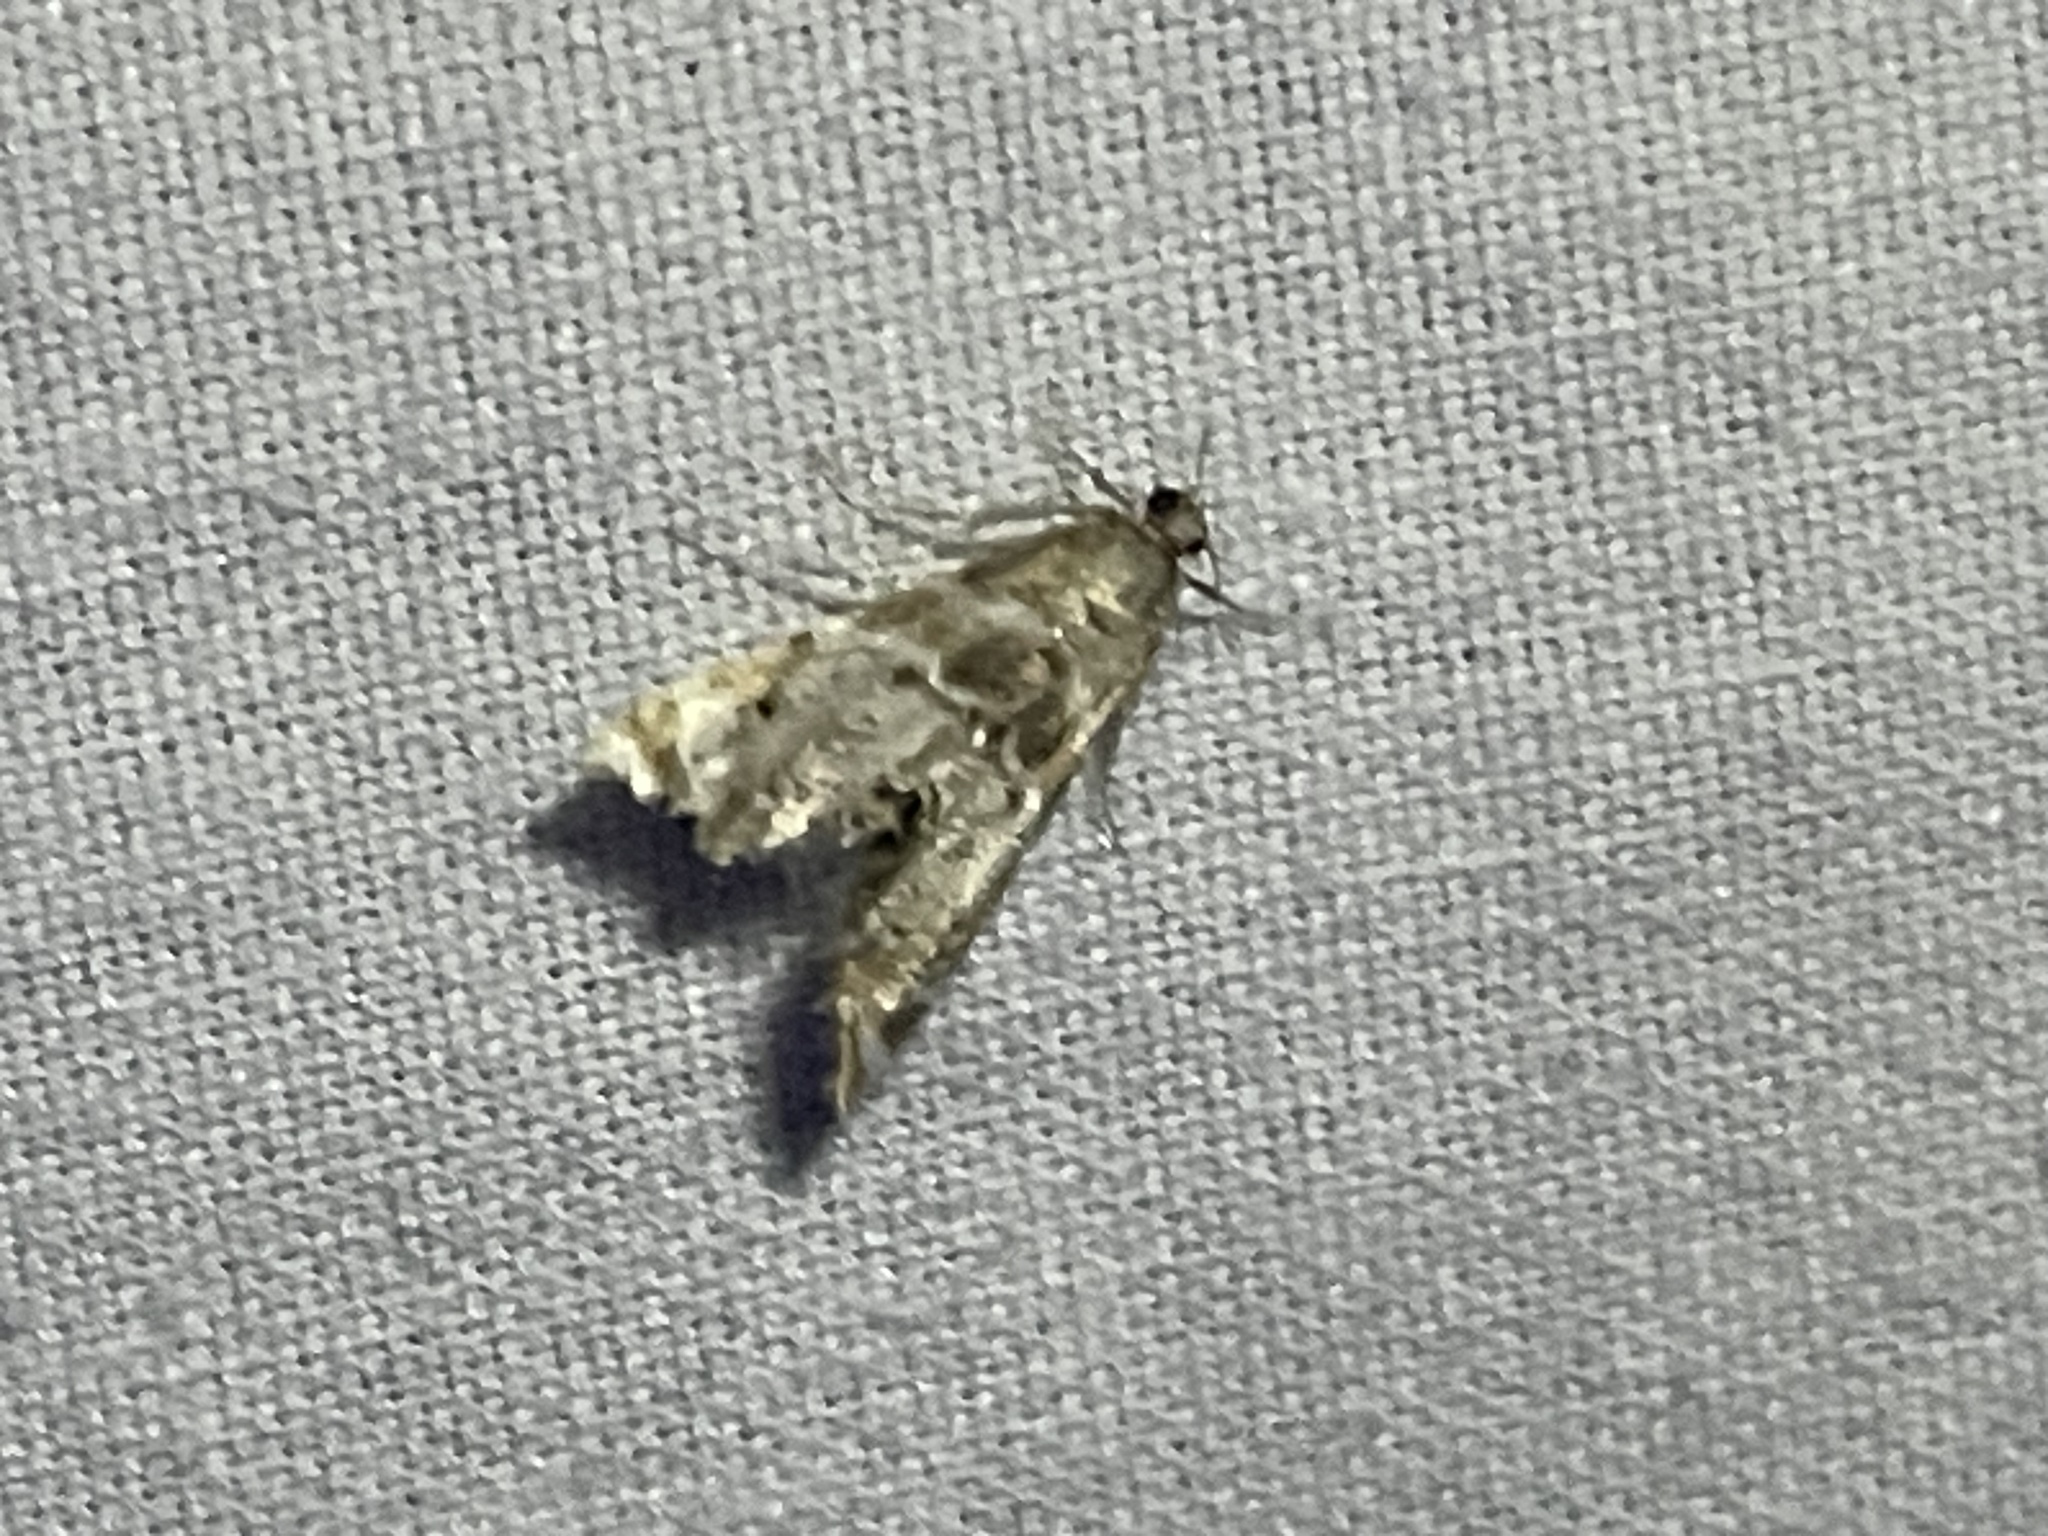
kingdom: Animalia
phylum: Arthropoda
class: Insecta
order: Lepidoptera
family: Crambidae
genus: Petrophila
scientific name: Petrophila fulicalis
